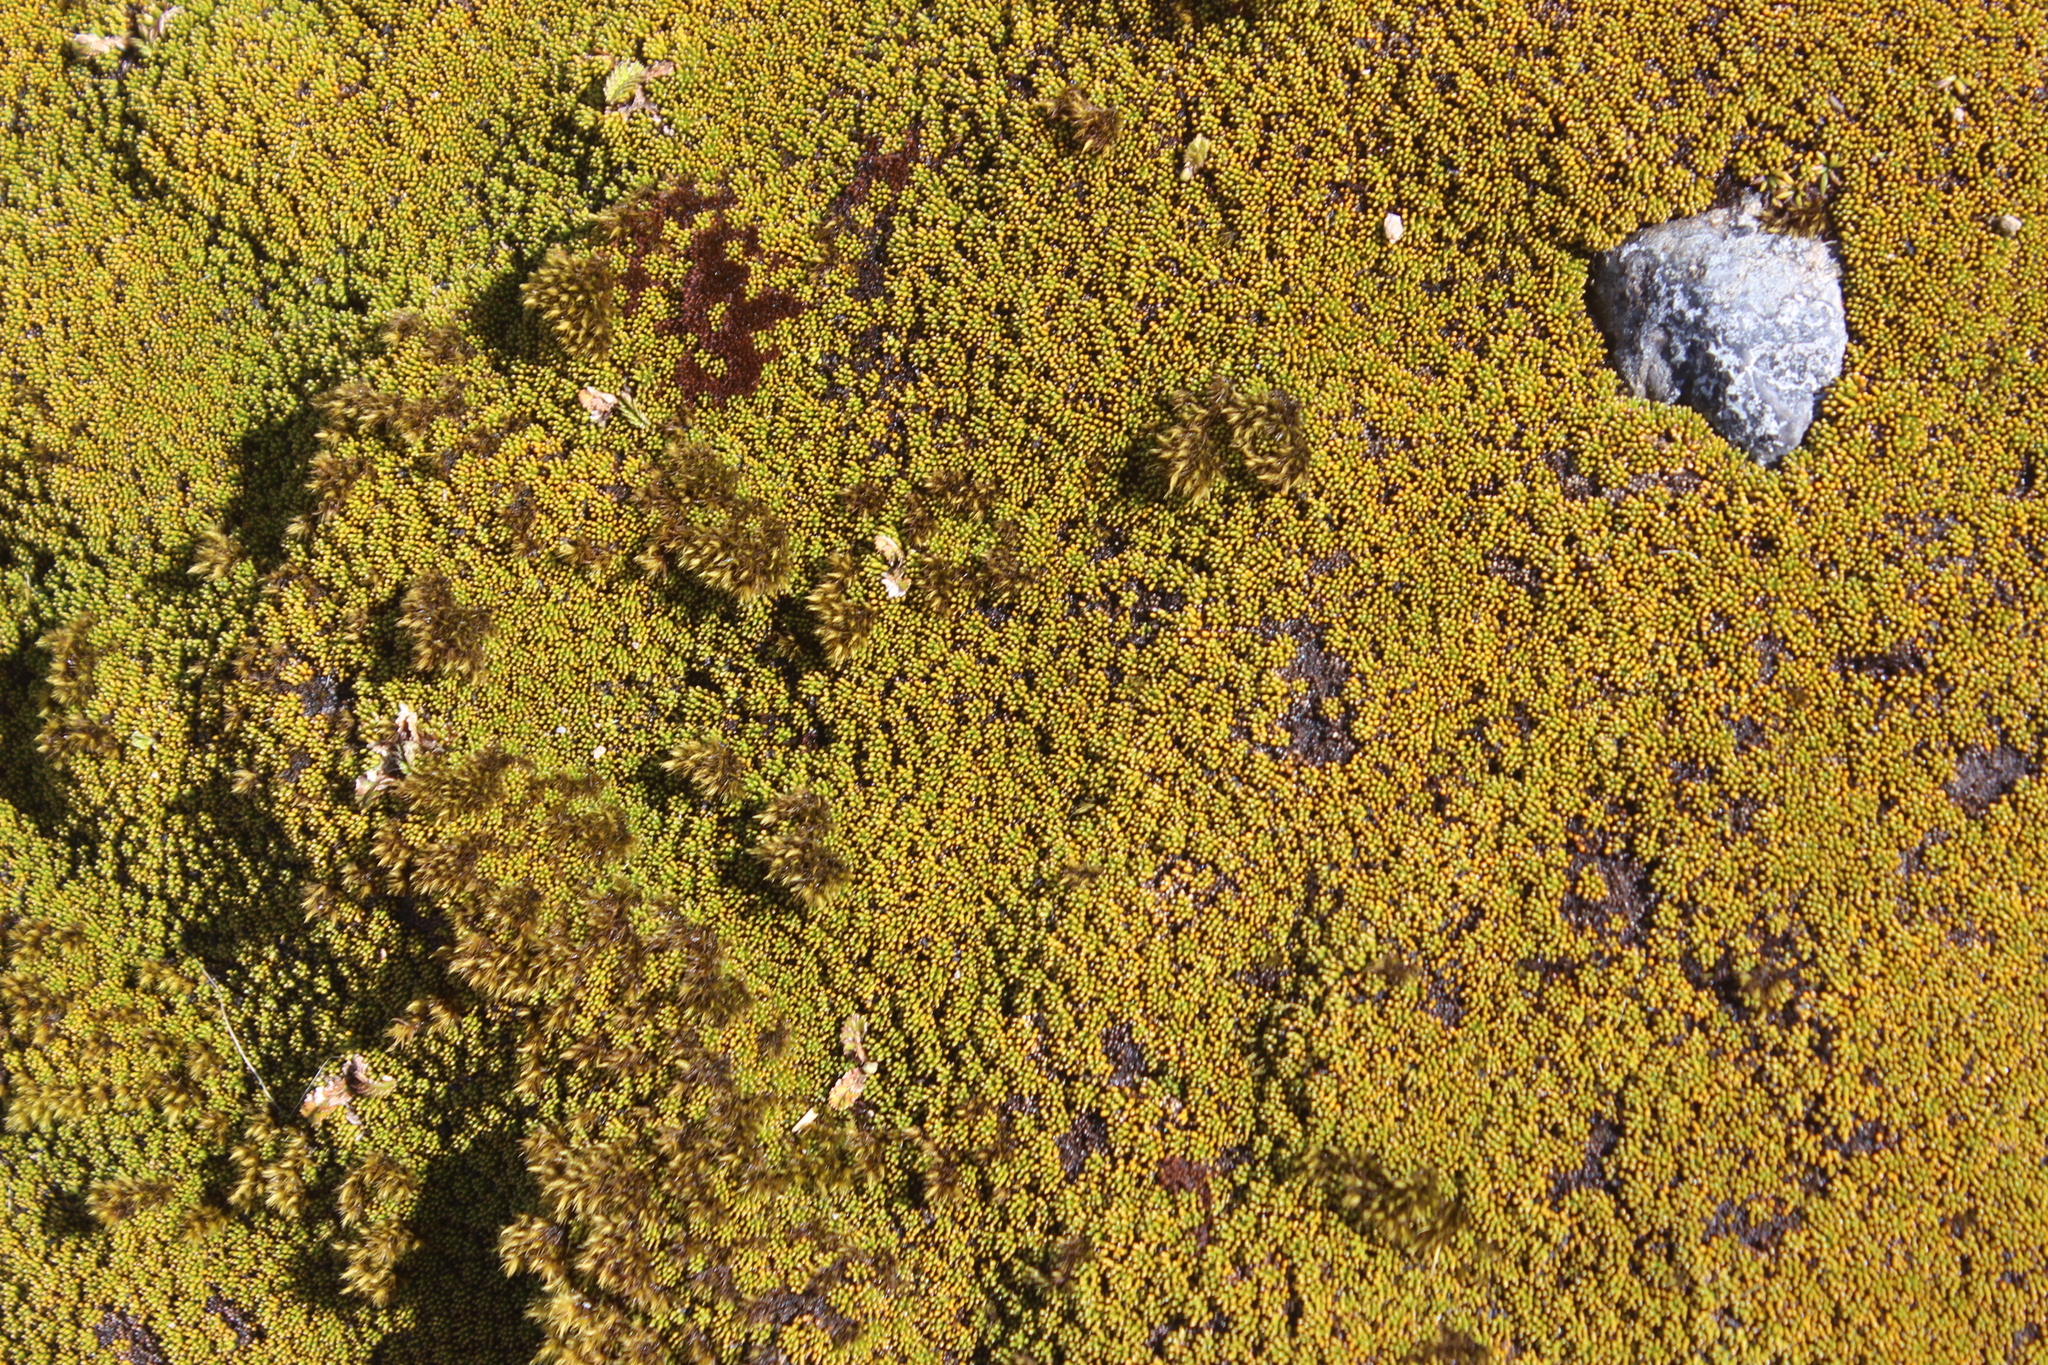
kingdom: Plantae
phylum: Tracheophyta
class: Magnoliopsida
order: Asterales
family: Stylidiaceae
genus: Phyllachne
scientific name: Phyllachne colensoi
